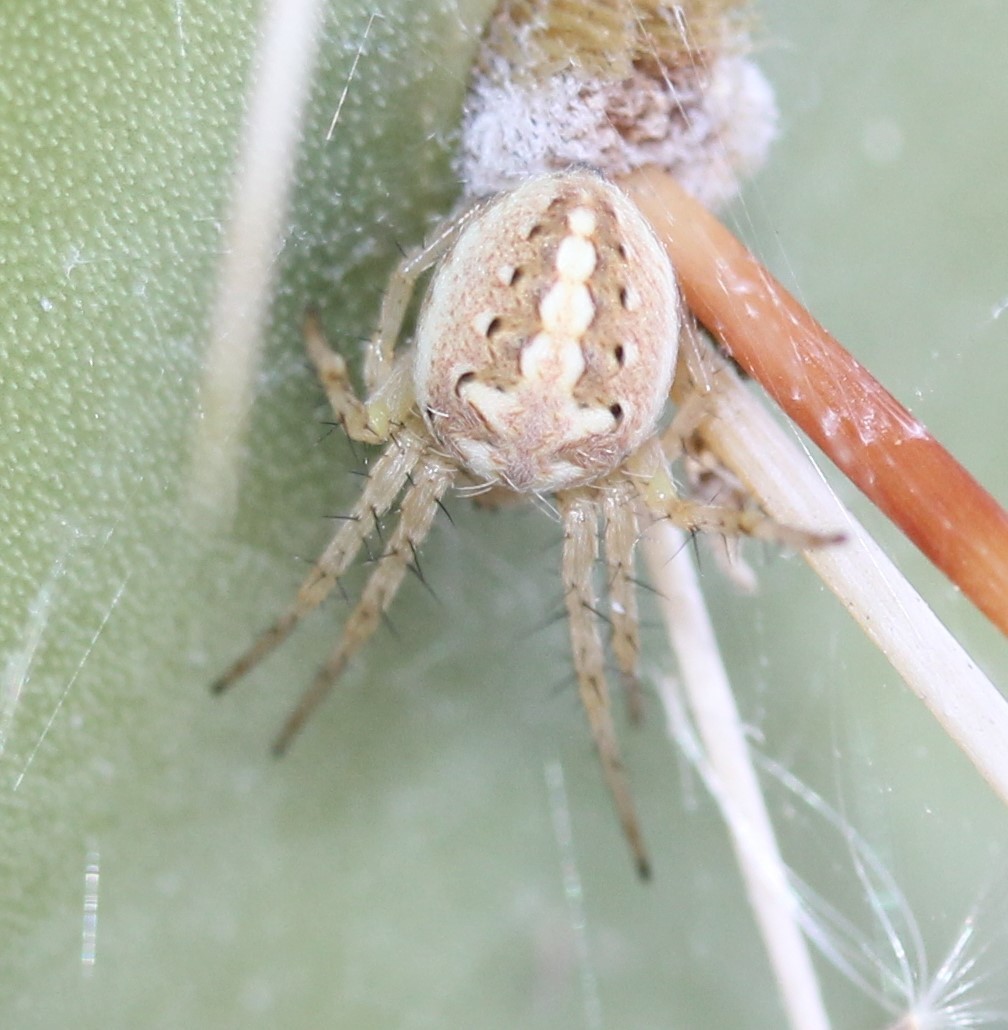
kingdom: Animalia
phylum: Arthropoda
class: Arachnida
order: Araneae
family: Araneidae
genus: Neoscona
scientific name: Neoscona oaxacensis
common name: Orb weavers
